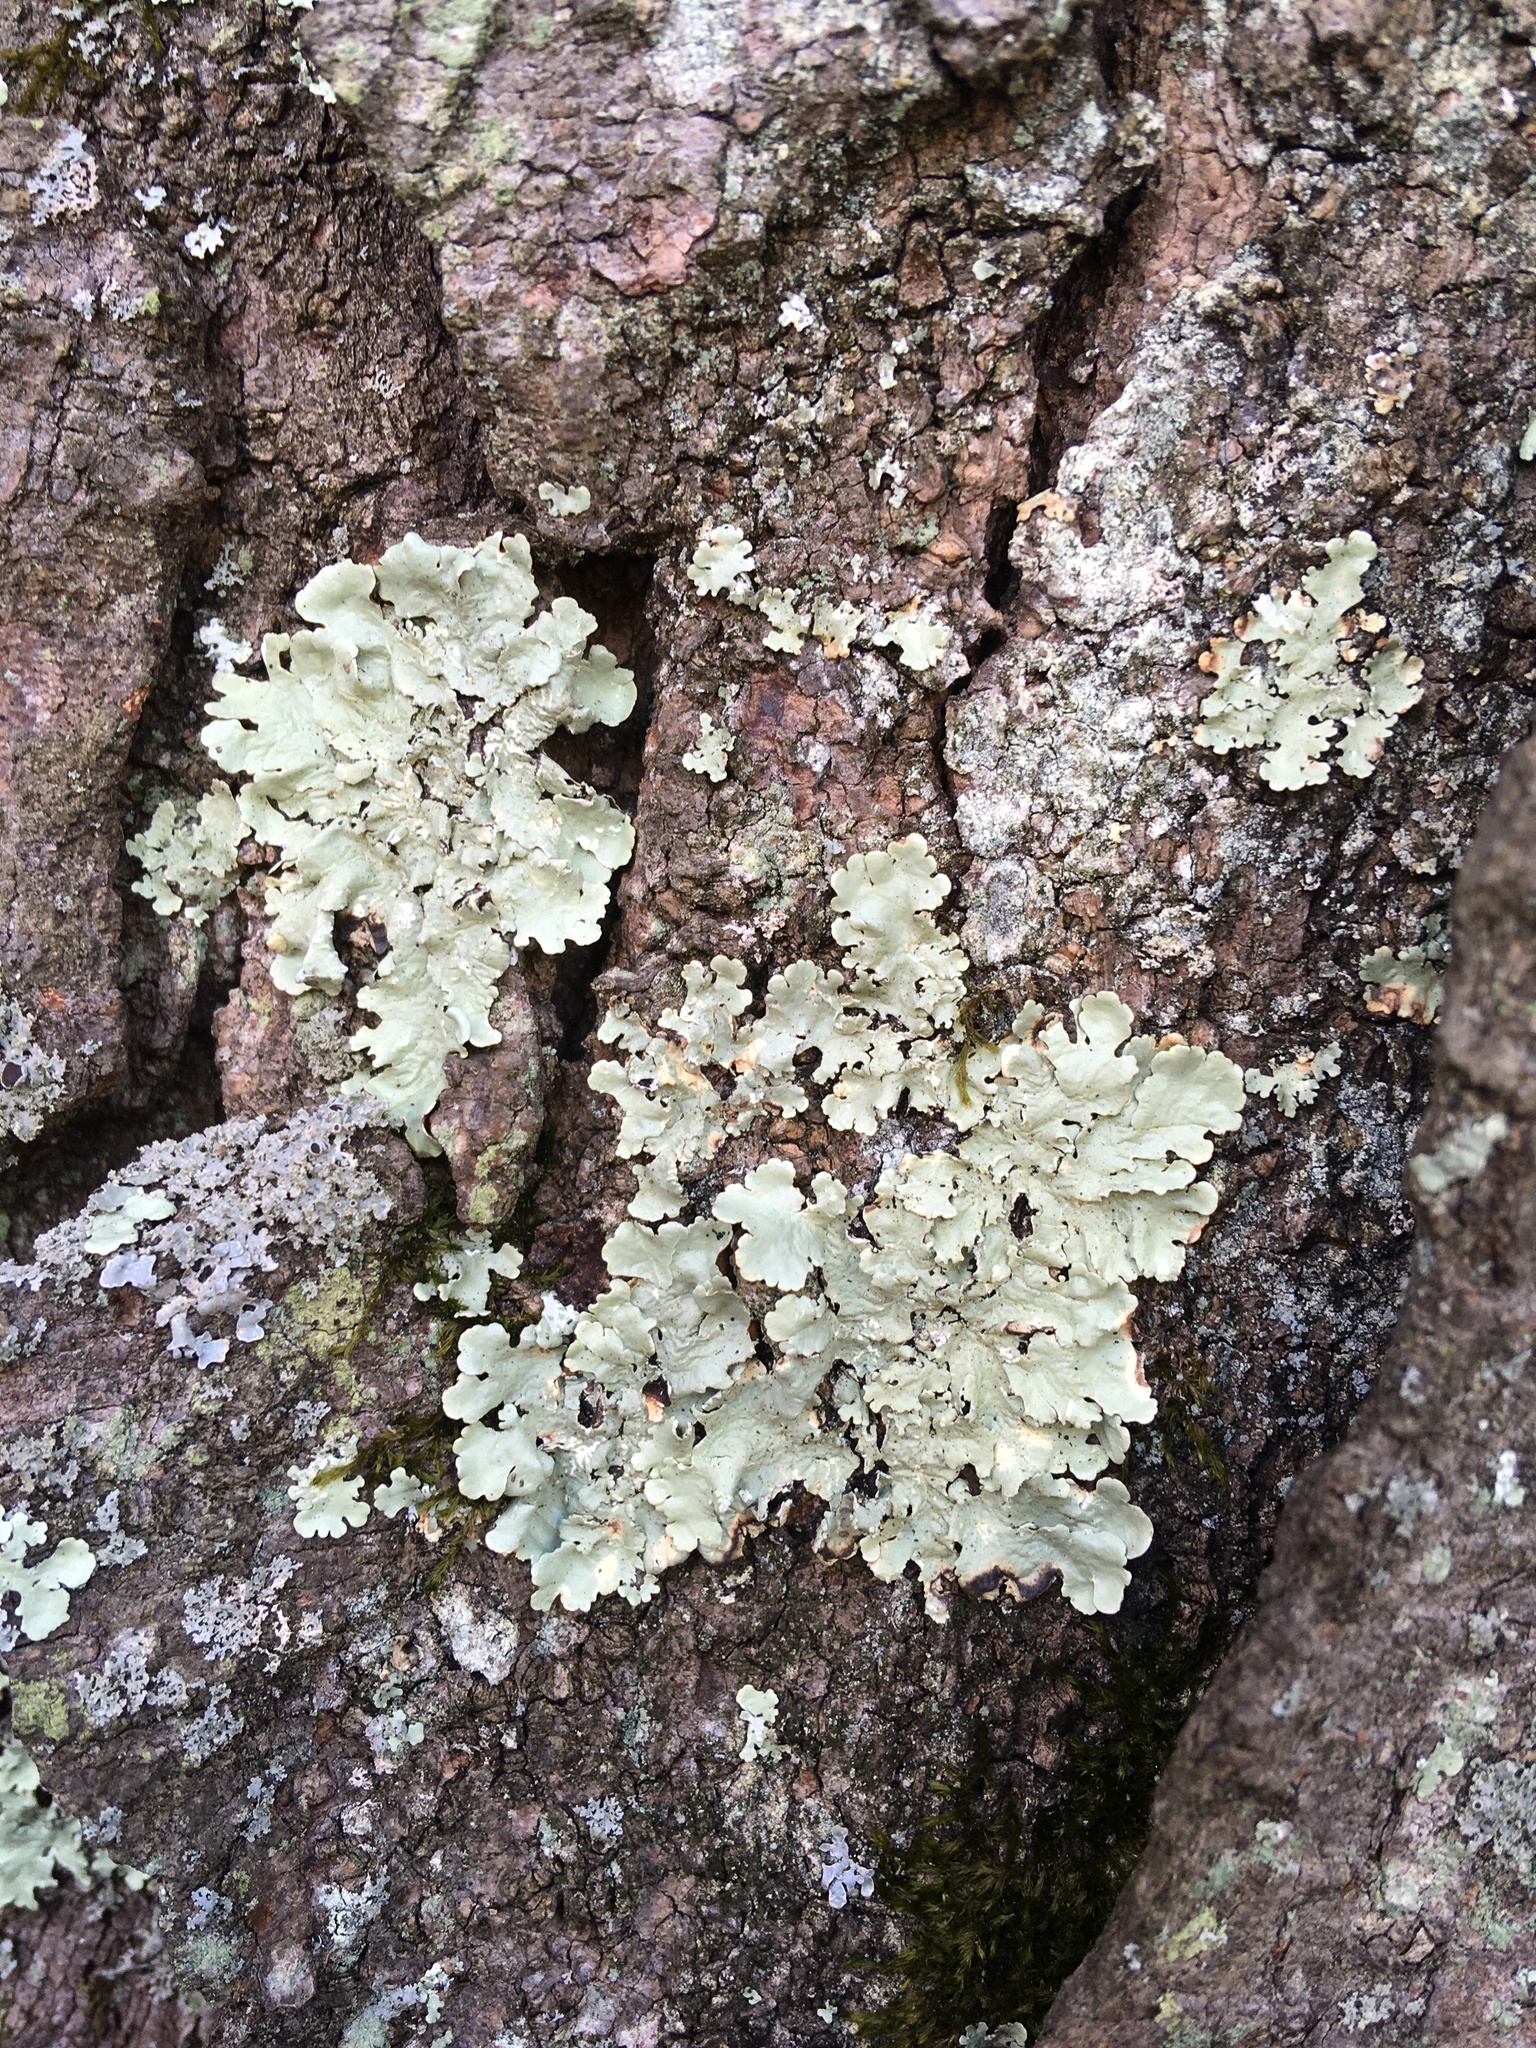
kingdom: Fungi
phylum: Ascomycota
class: Lecanoromycetes
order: Lecanorales
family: Parmeliaceae
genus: Flavoparmelia
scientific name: Flavoparmelia caperata
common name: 40-mile per hour lichen
